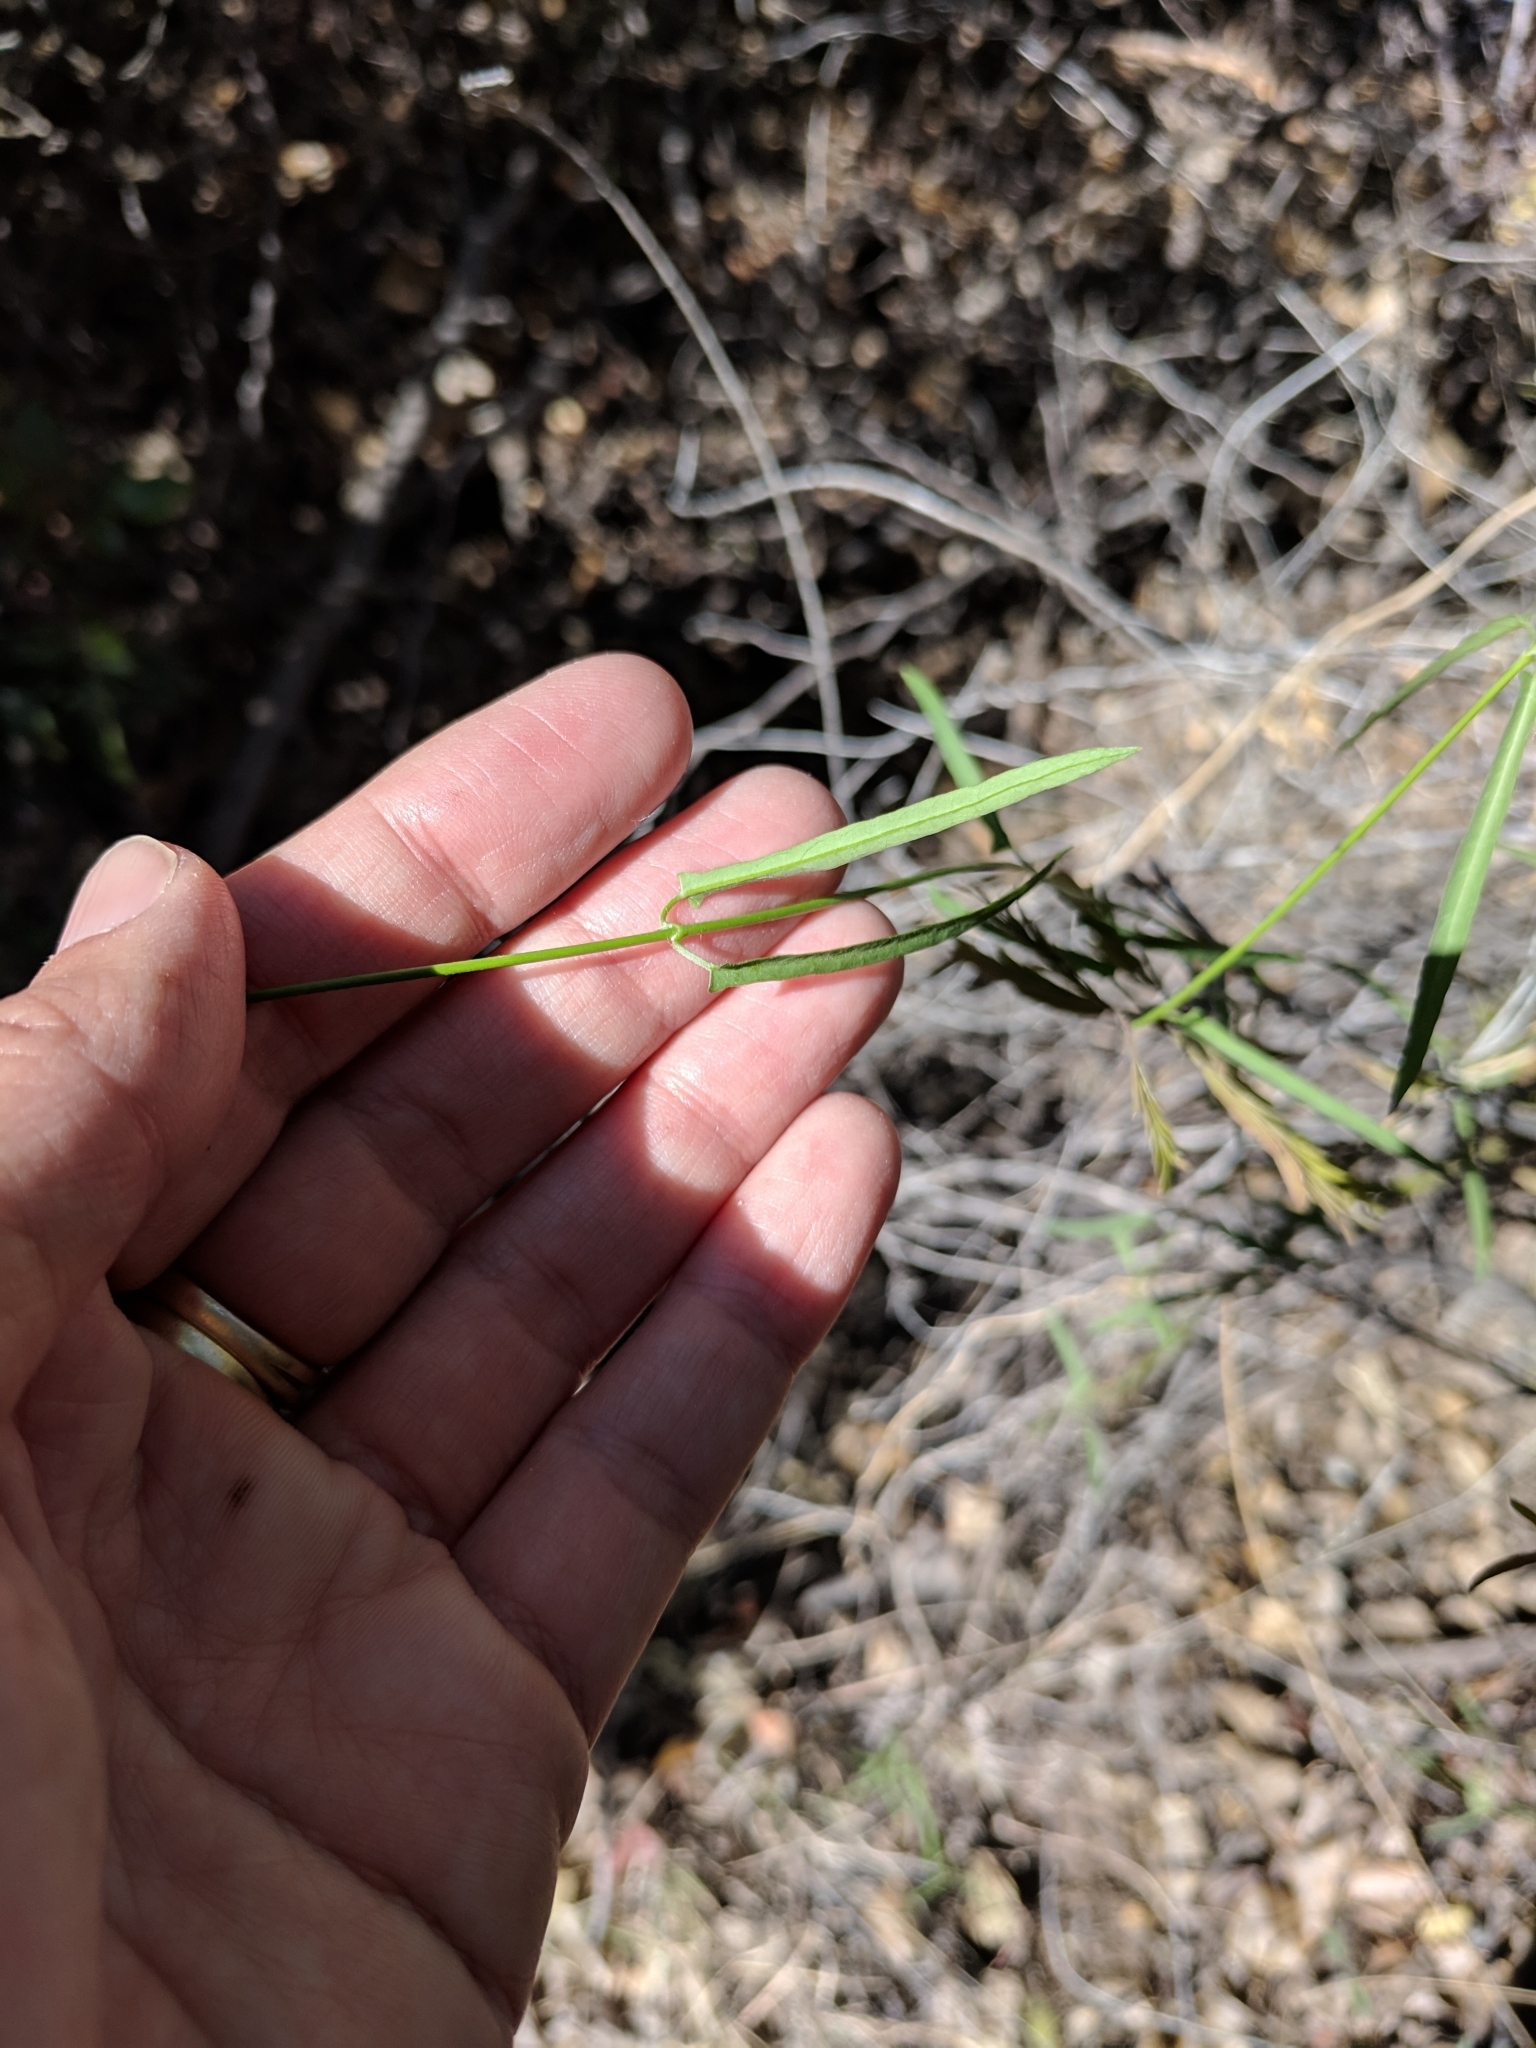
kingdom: Plantae
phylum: Tracheophyta
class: Magnoliopsida
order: Gentianales
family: Apocynaceae
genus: Funastrum
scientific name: Funastrum heterophyllum
